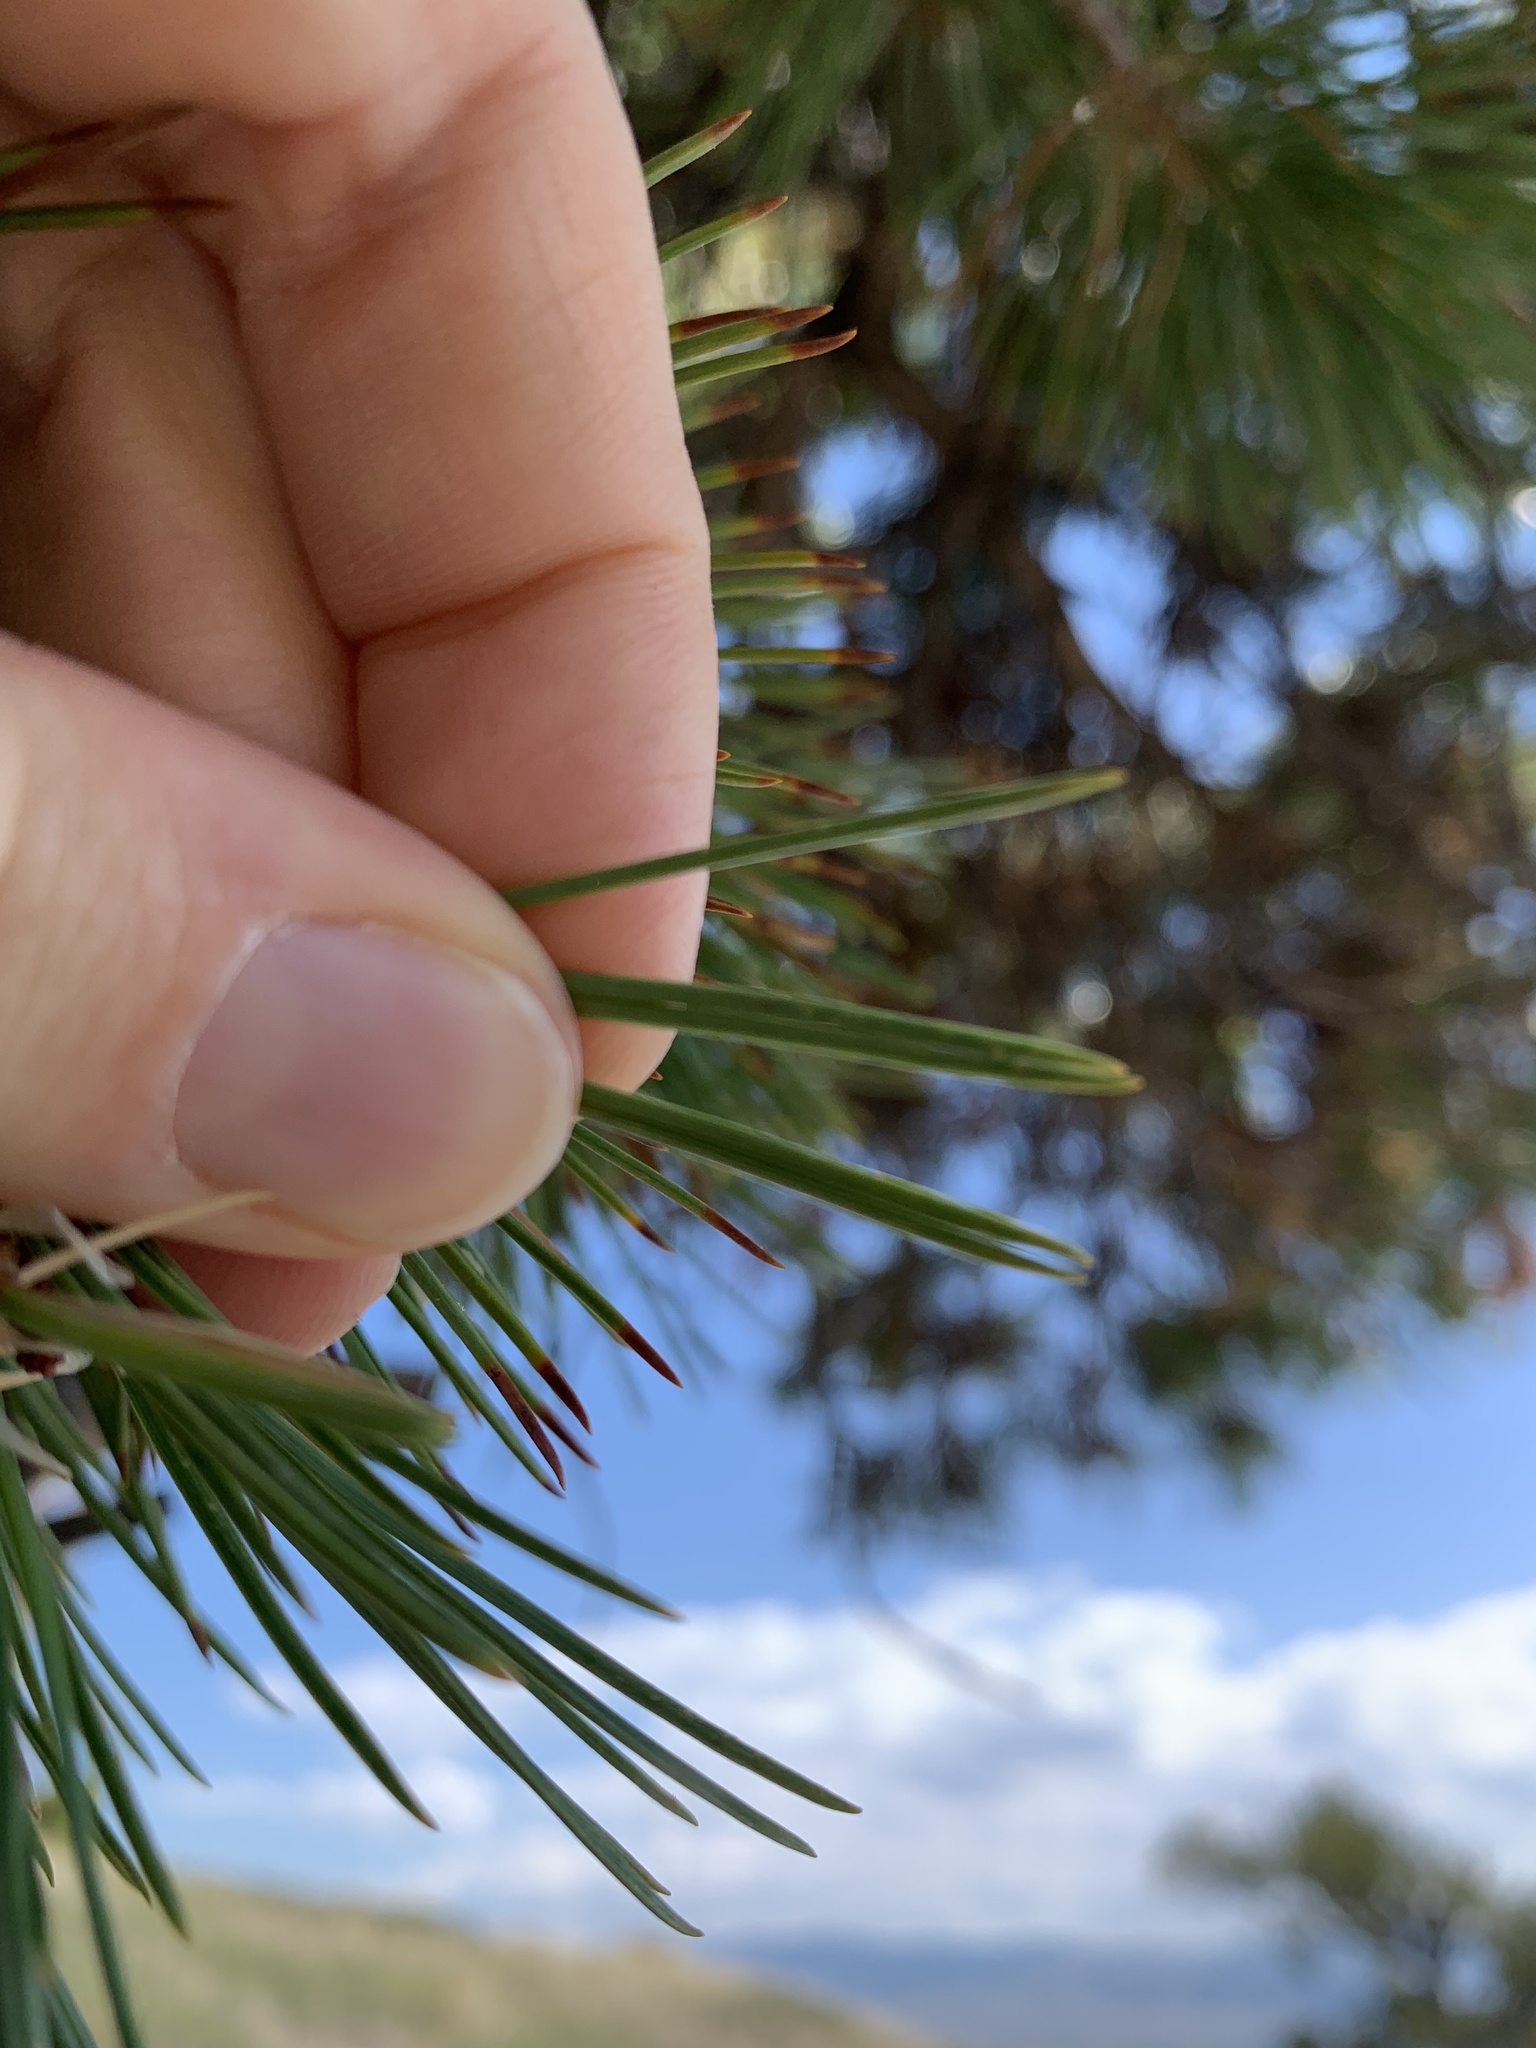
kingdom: Plantae
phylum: Tracheophyta
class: Pinopsida
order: Pinales
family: Pinaceae
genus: Pinus
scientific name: Pinus flexilis
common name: Limber pine
